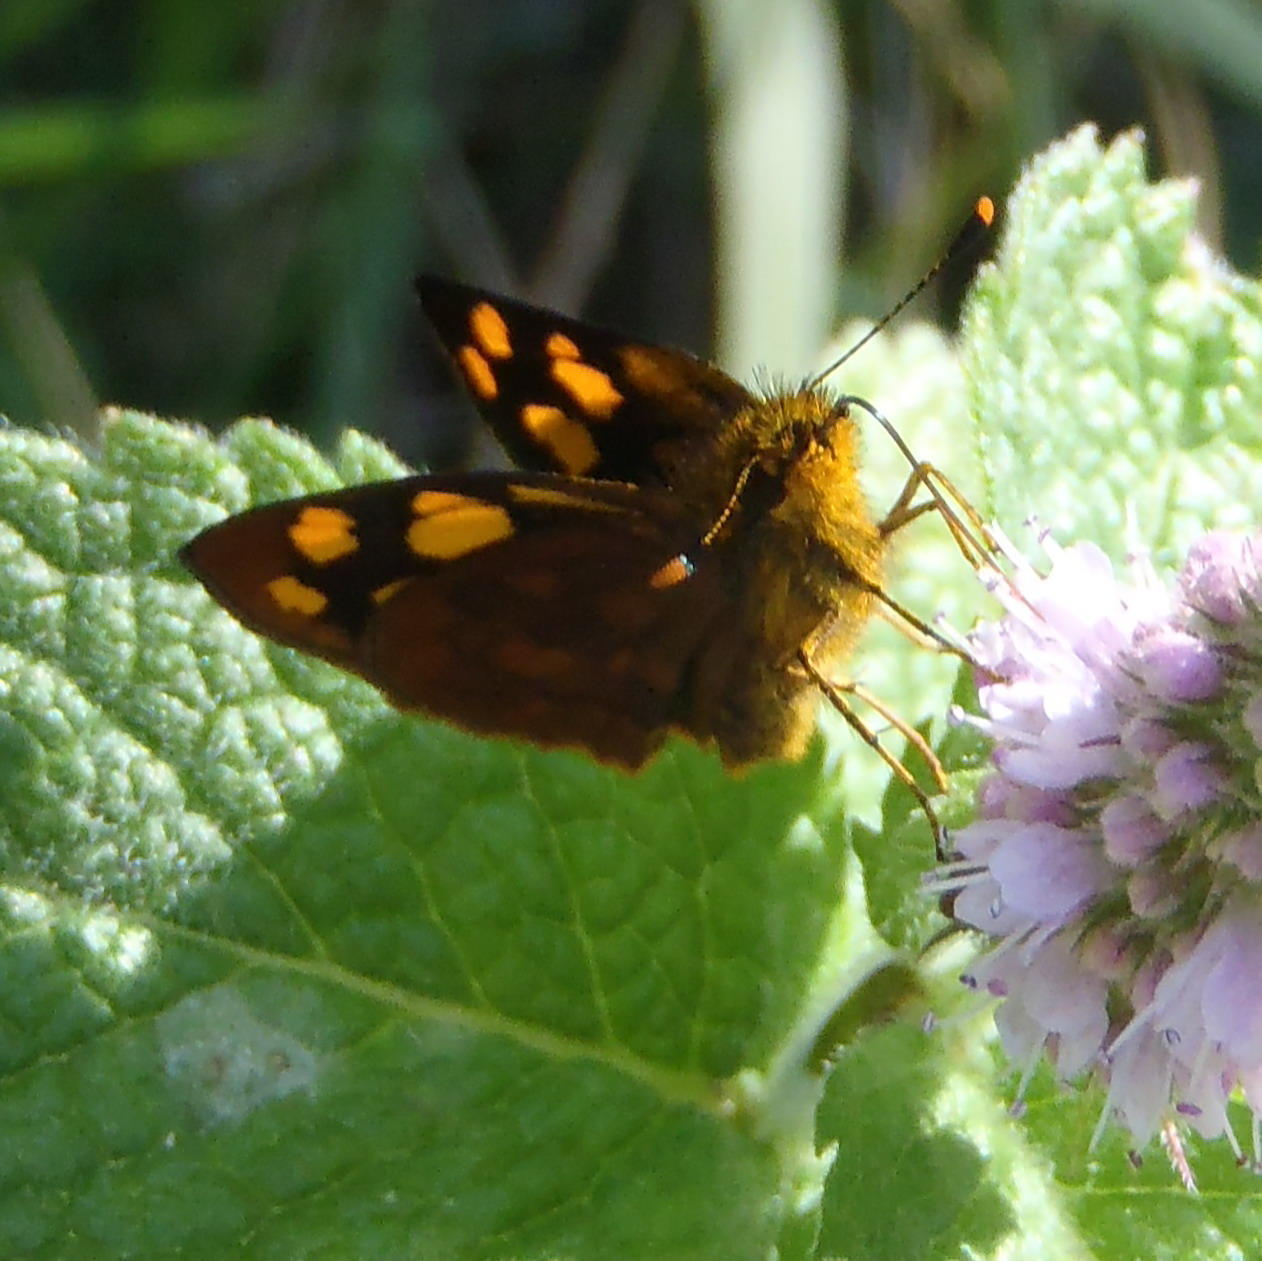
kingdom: Animalia
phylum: Arthropoda
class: Insecta
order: Lepidoptera
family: Hesperiidae
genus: Metisella
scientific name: Metisella metis
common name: Western gold-spotted sylph
